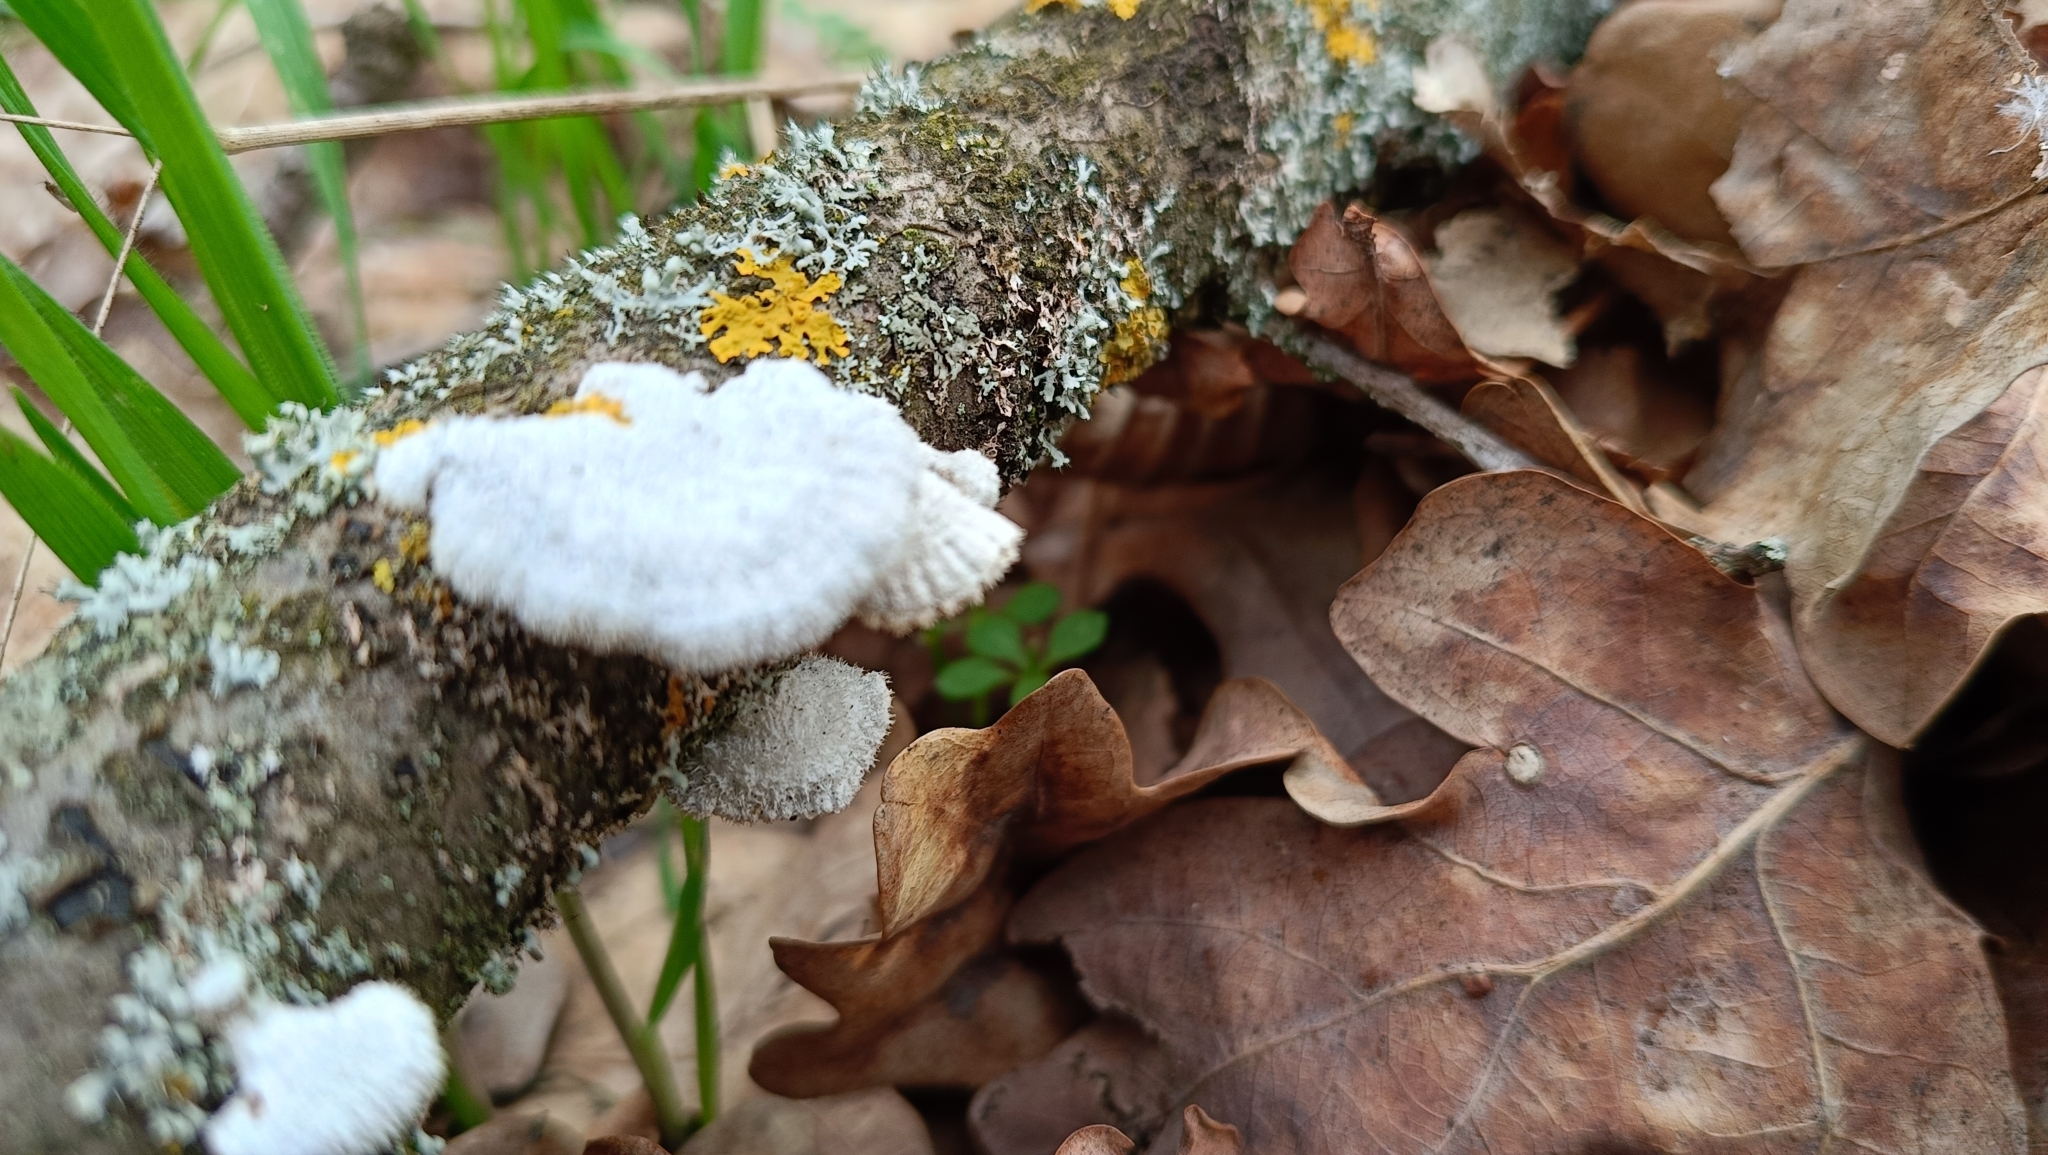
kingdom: Fungi
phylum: Basidiomycota
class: Agaricomycetes
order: Agaricales
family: Schizophyllaceae
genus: Schizophyllum
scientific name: Schizophyllum commune
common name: Common porecrust
